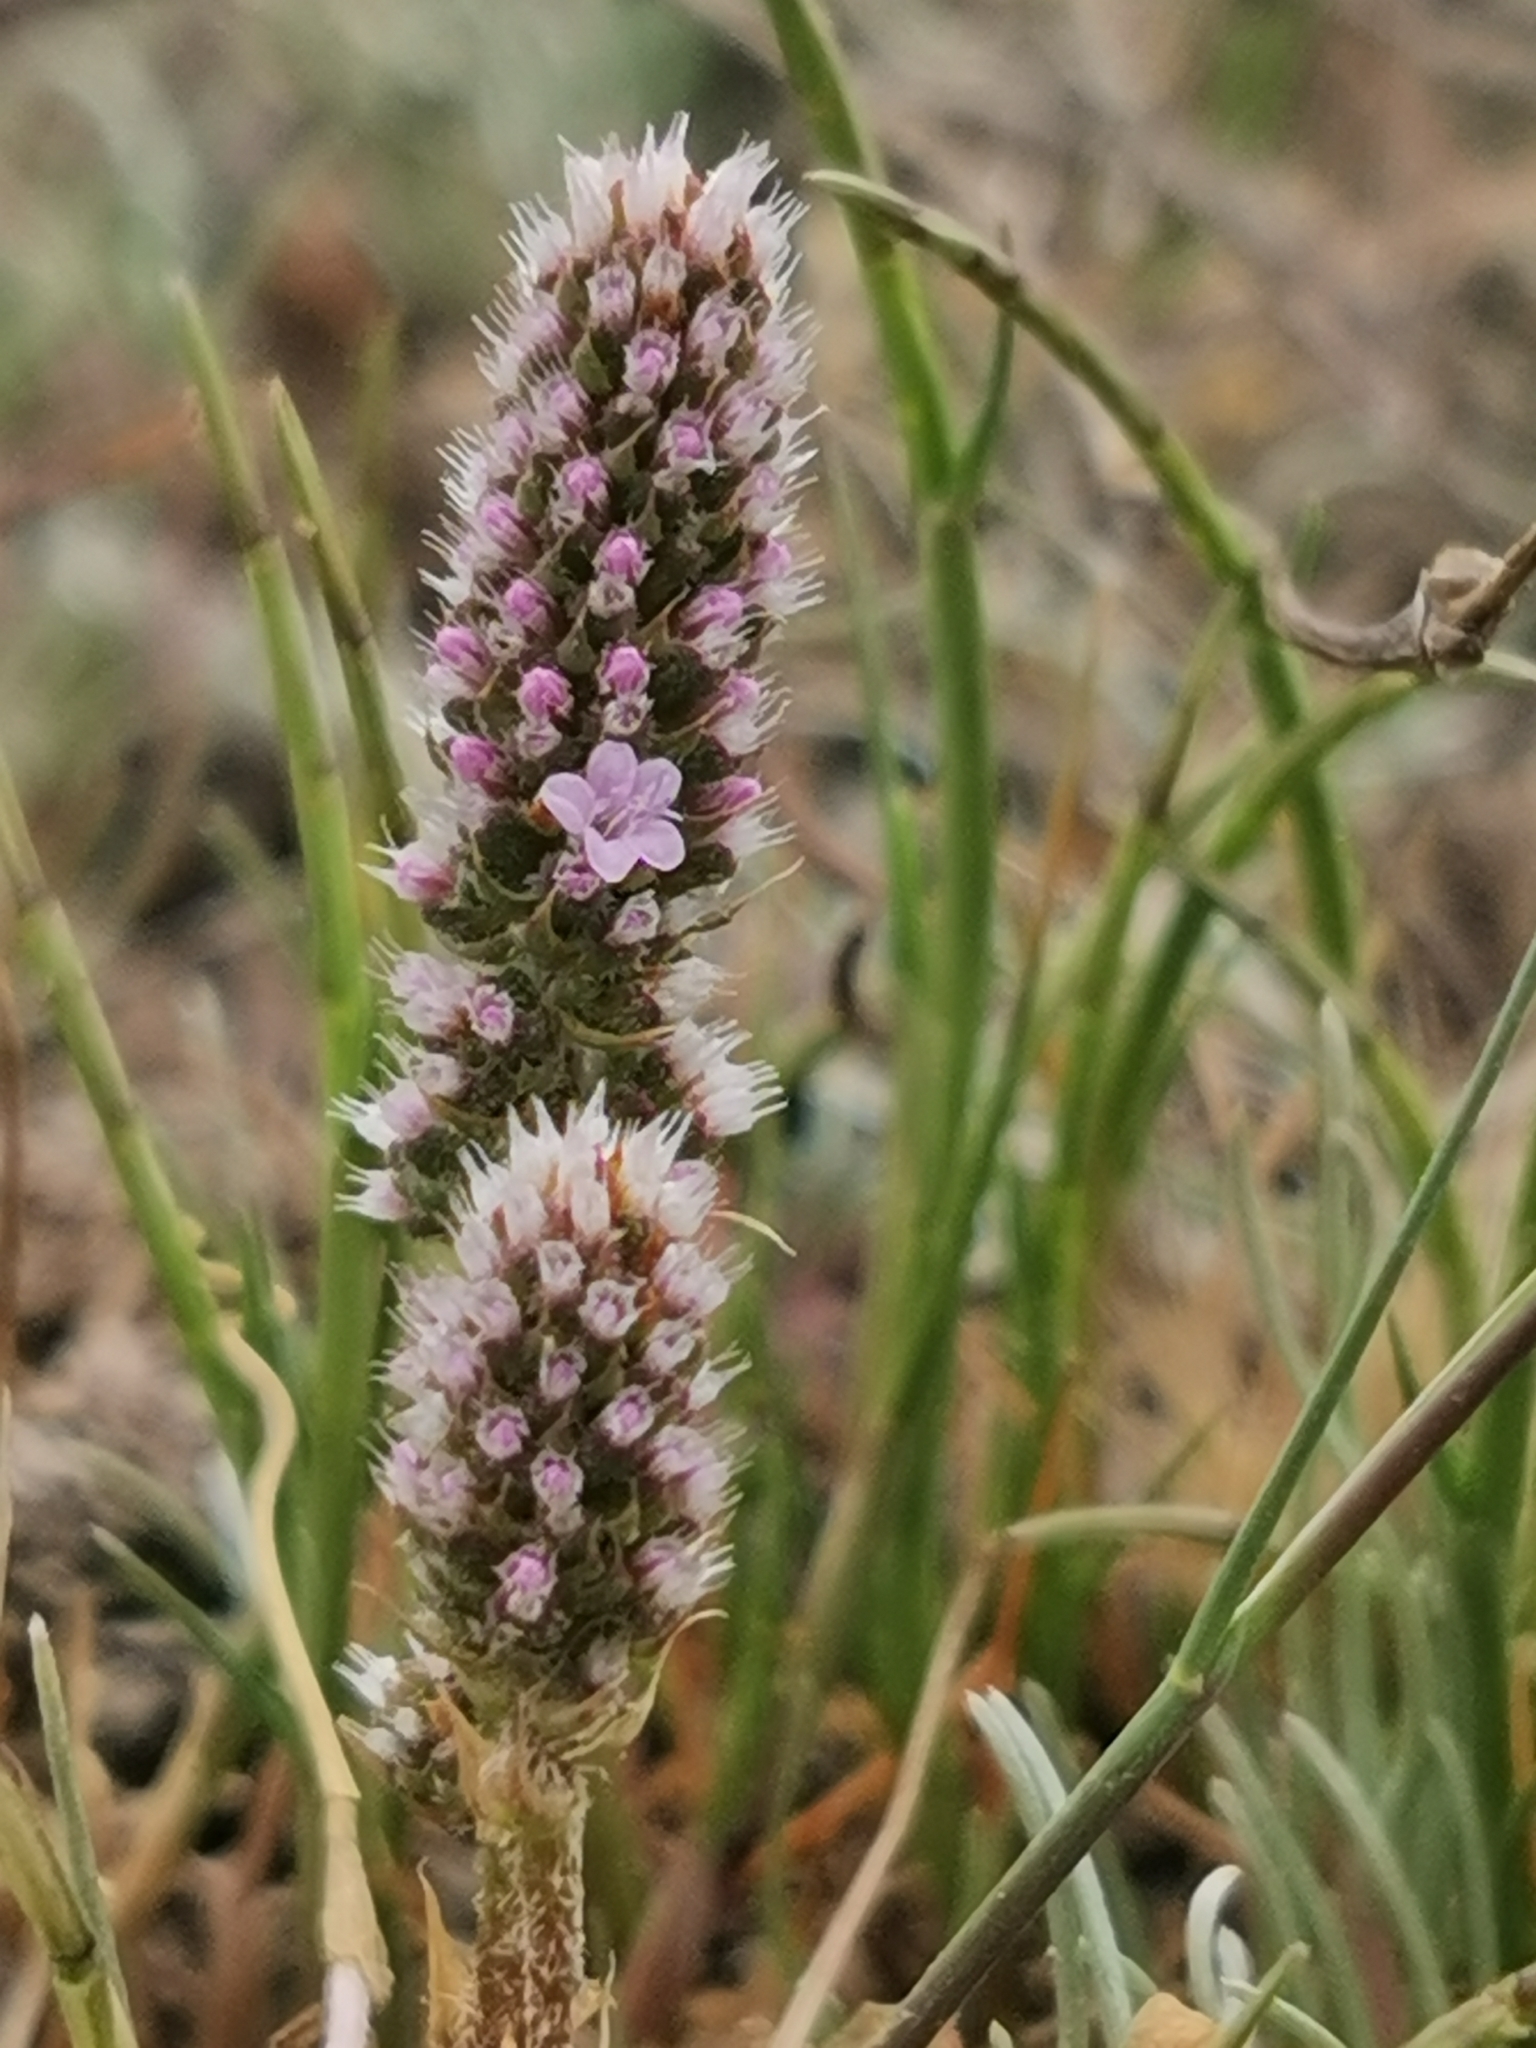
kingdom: Plantae
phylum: Tracheophyta
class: Magnoliopsida
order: Caryophyllales
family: Plumbaginaceae
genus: Psylliostachys
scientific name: Psylliostachys spicatus
